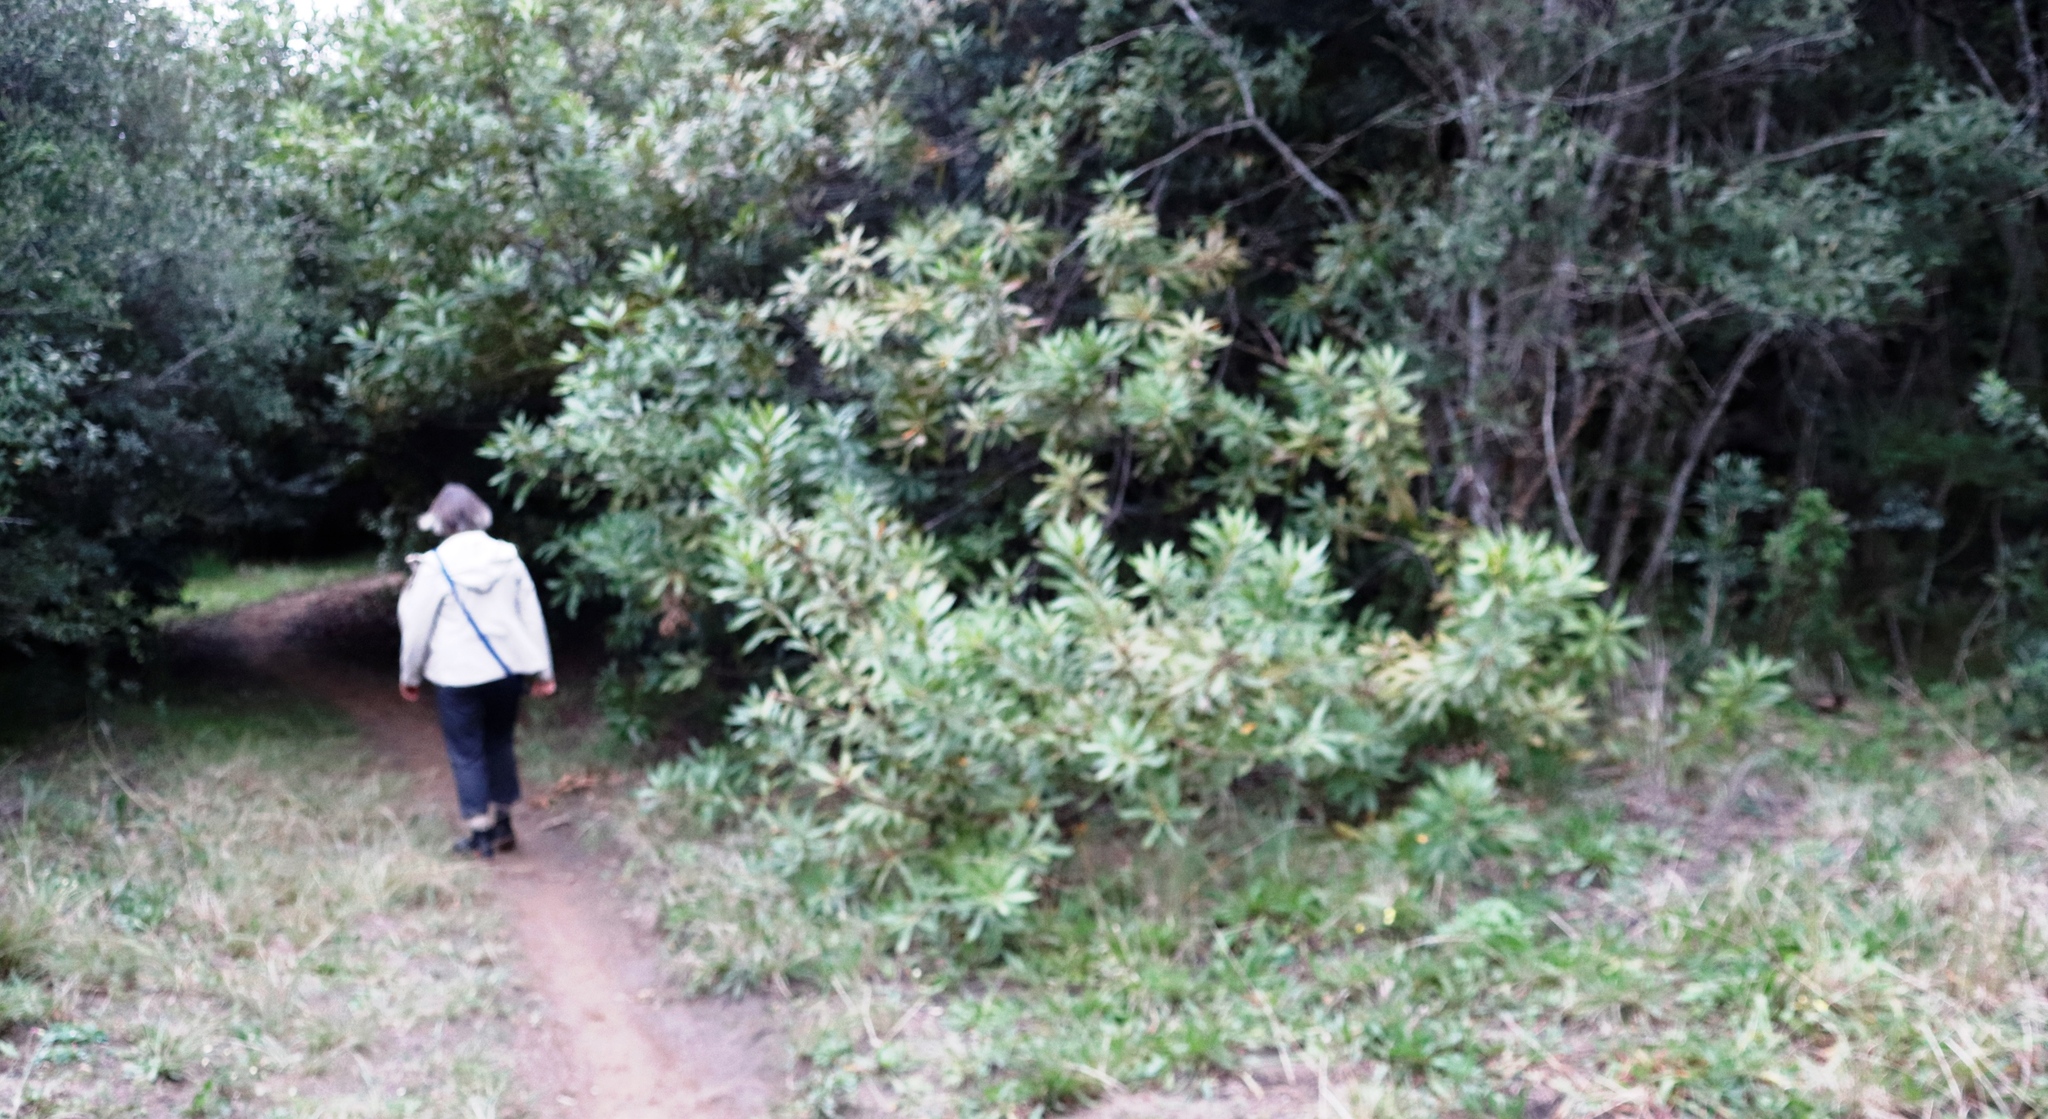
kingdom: Plantae
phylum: Tracheophyta
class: Magnoliopsida
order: Proteales
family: Proteaceae
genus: Brabejum
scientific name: Brabejum stellatifolium
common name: Wild almond
